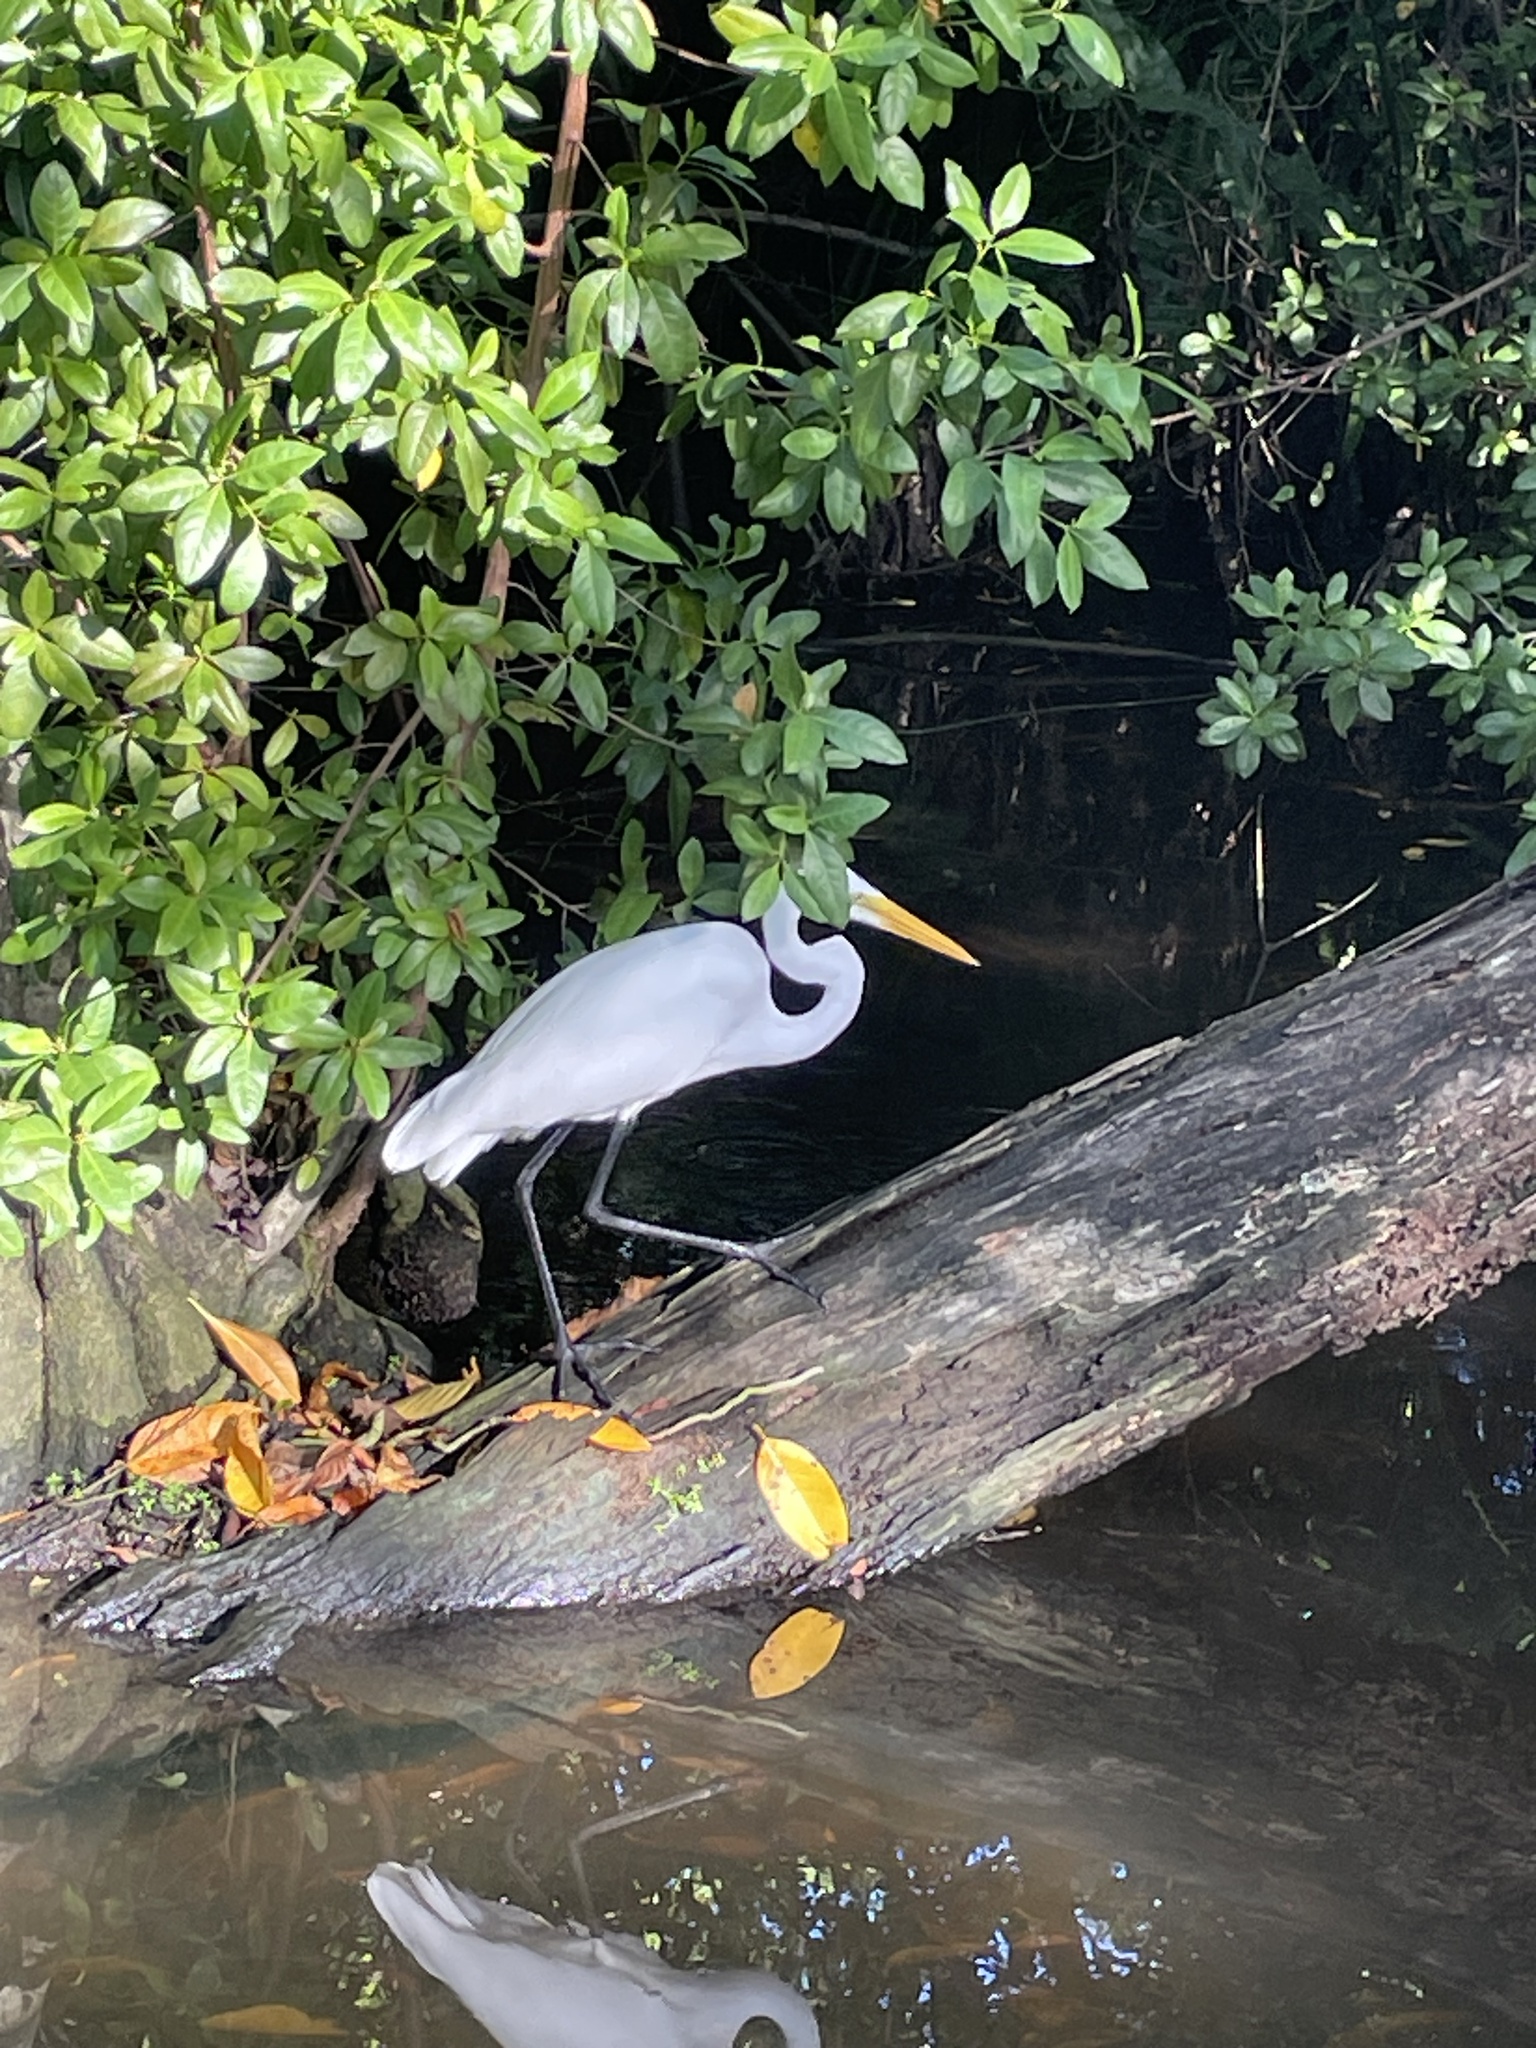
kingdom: Animalia
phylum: Chordata
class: Aves
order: Pelecaniformes
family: Ardeidae
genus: Ardea
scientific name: Ardea alba
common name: Great egret
